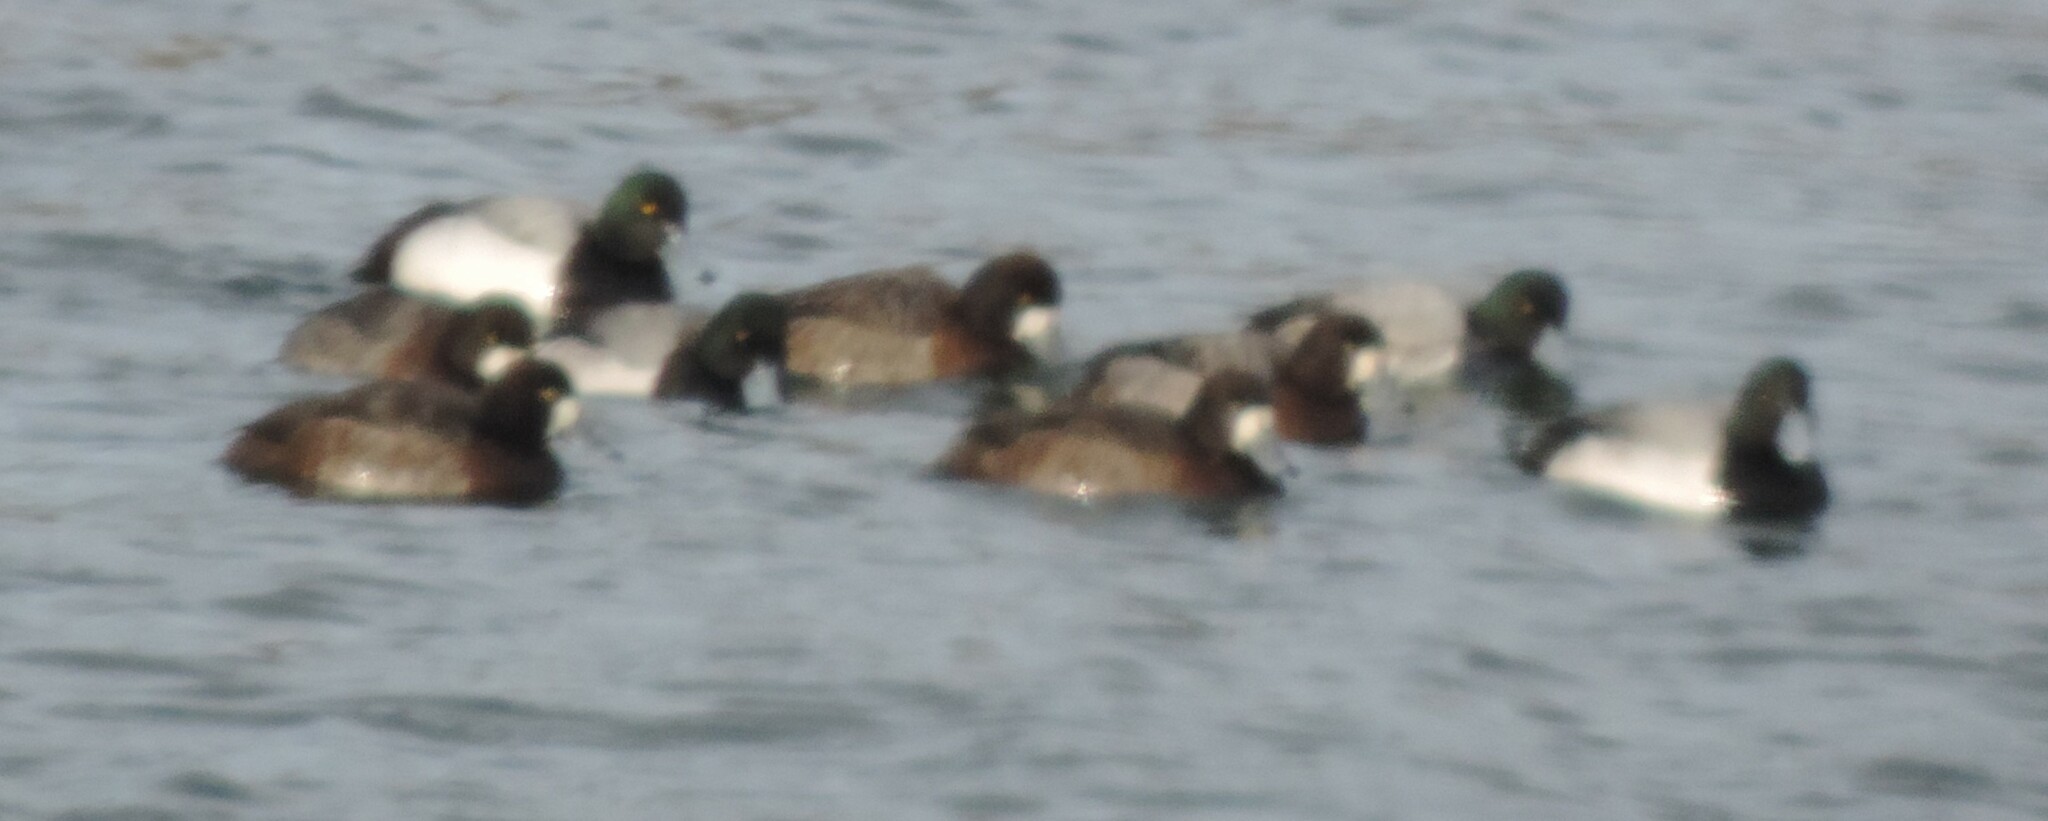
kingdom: Animalia
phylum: Chordata
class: Aves
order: Anseriformes
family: Anatidae
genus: Aythya
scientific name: Aythya marila
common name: Greater scaup
